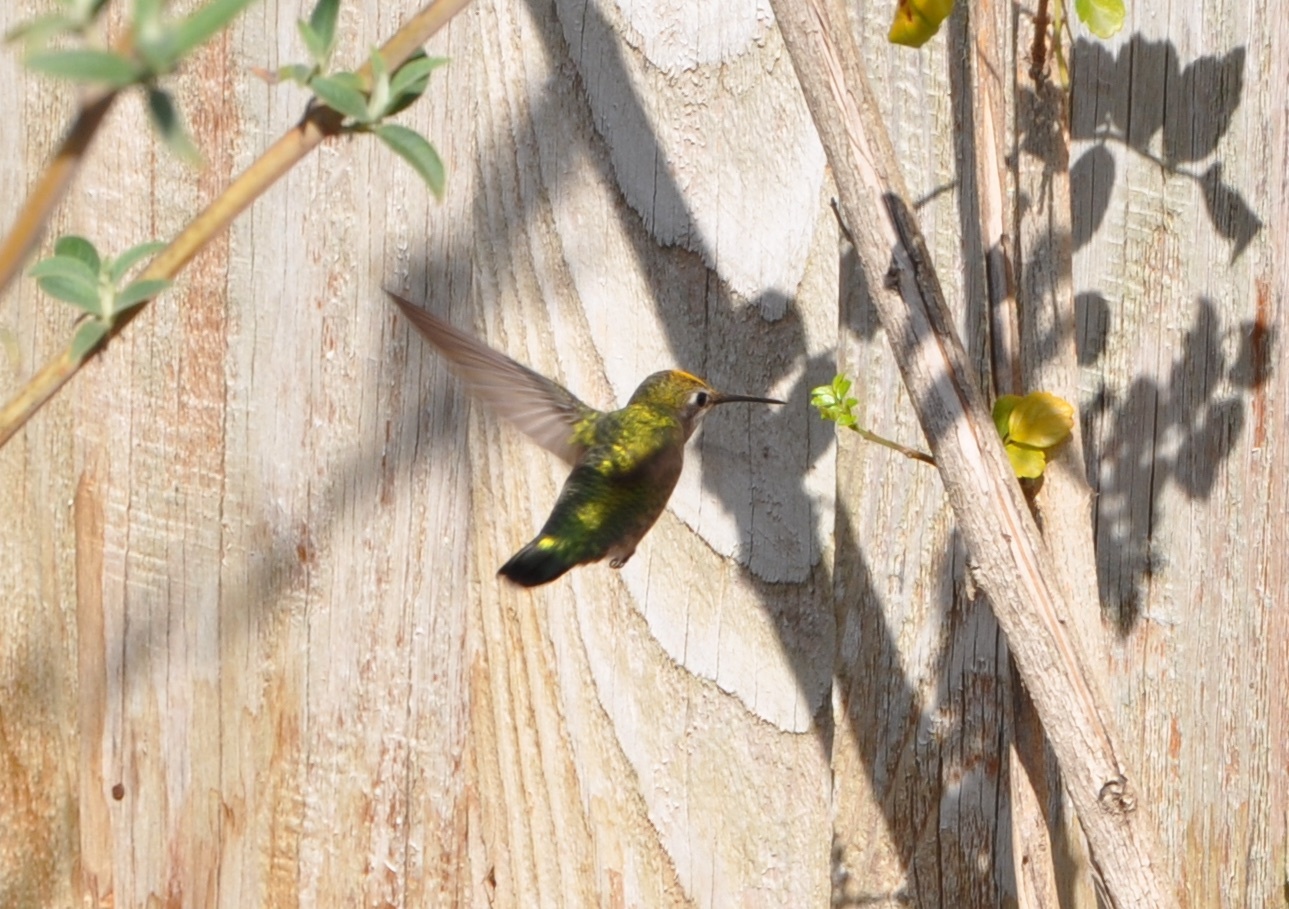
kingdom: Animalia
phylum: Chordata
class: Aves
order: Apodiformes
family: Trochilidae
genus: Calypte
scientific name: Calypte anna
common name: Anna's hummingbird
